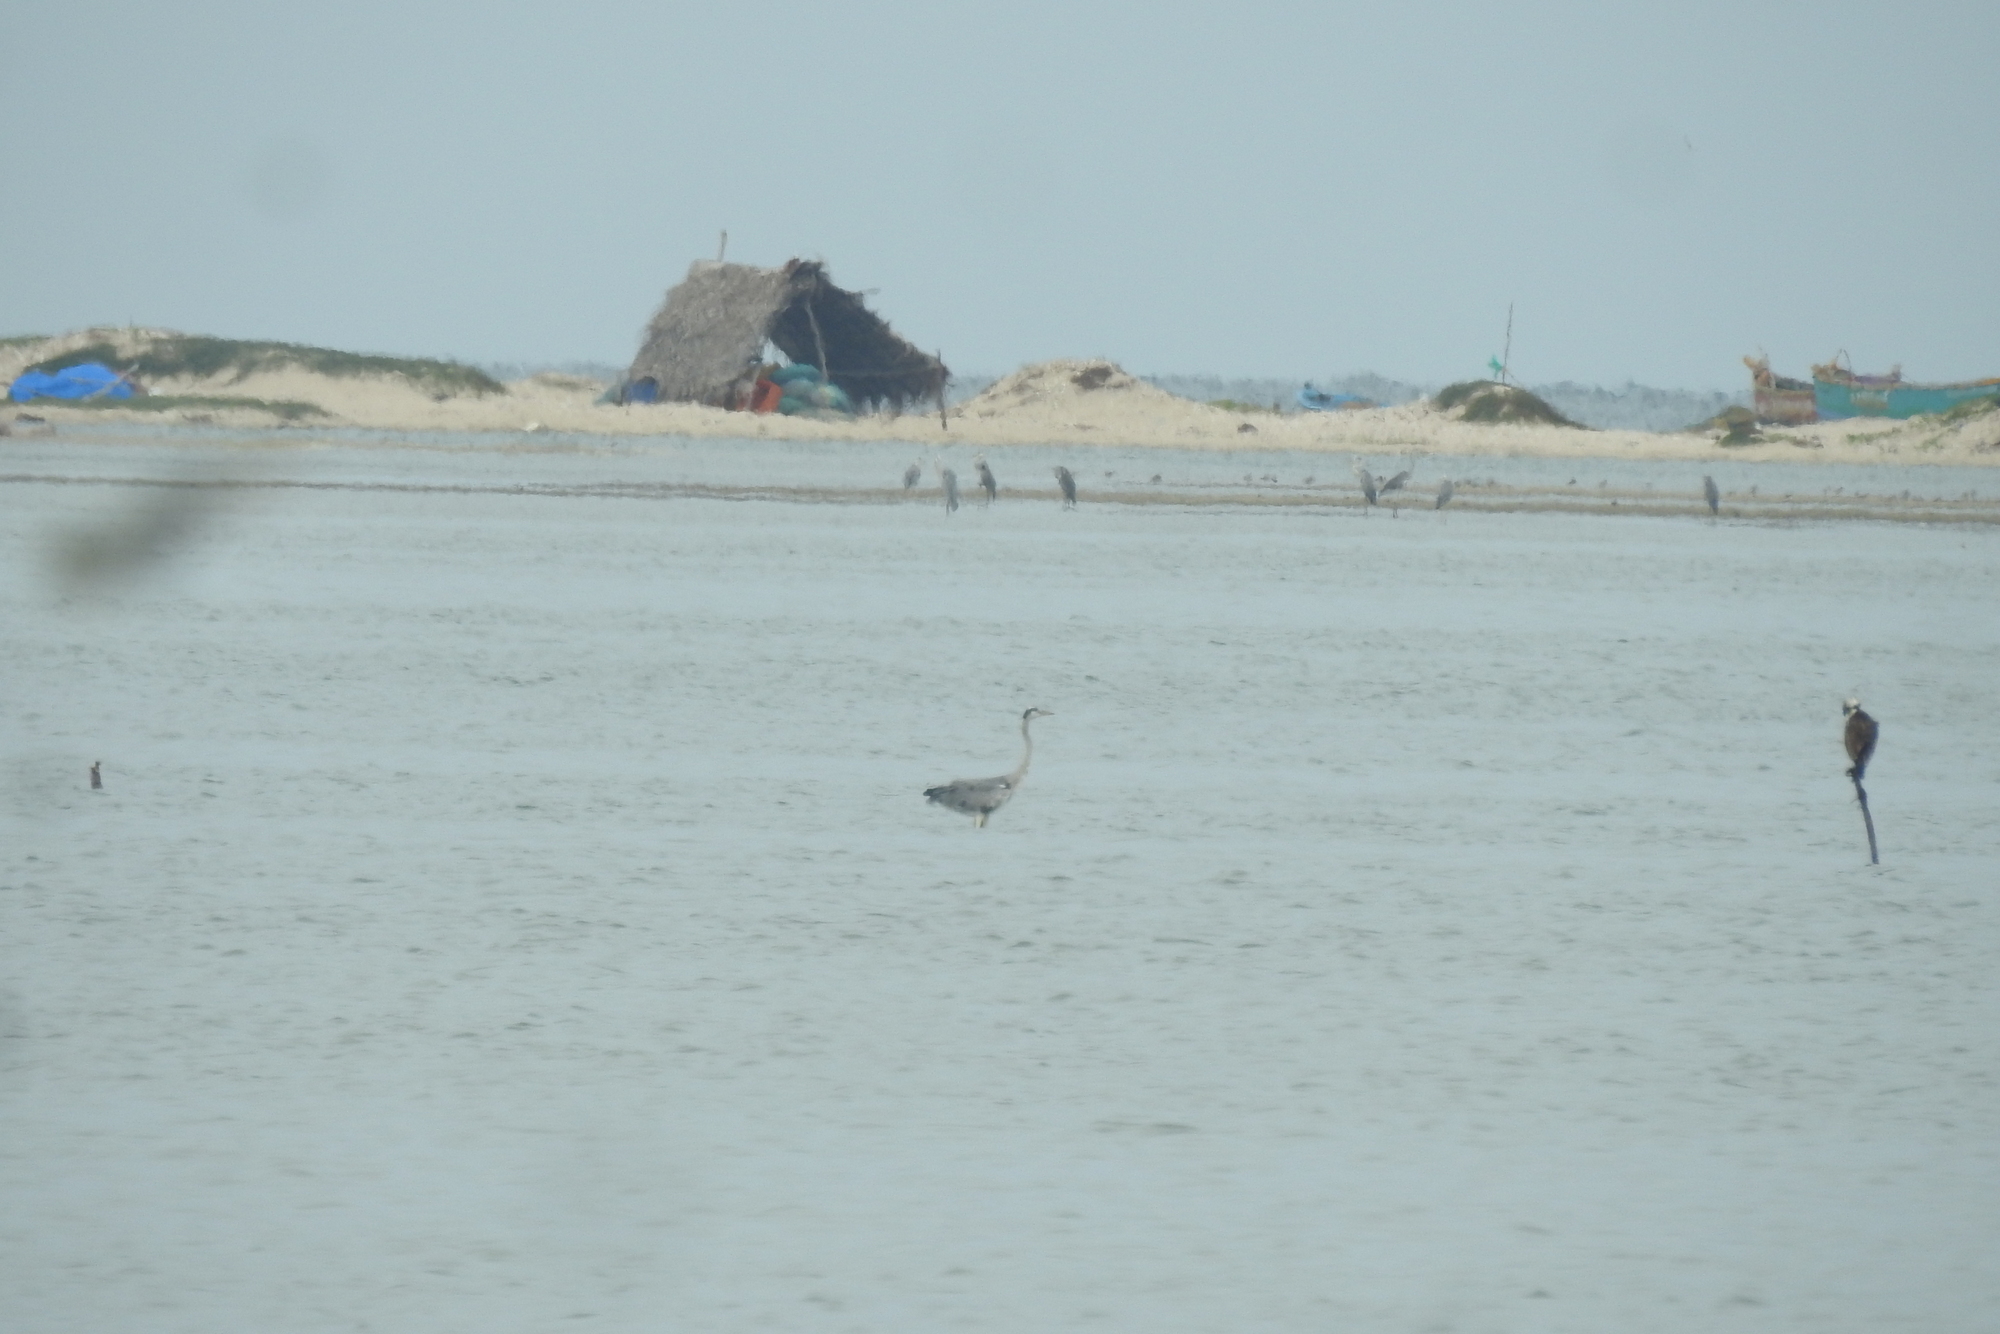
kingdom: Animalia
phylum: Chordata
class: Aves
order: Pelecaniformes
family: Ardeidae
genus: Ardea
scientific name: Ardea cinerea
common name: Grey heron
